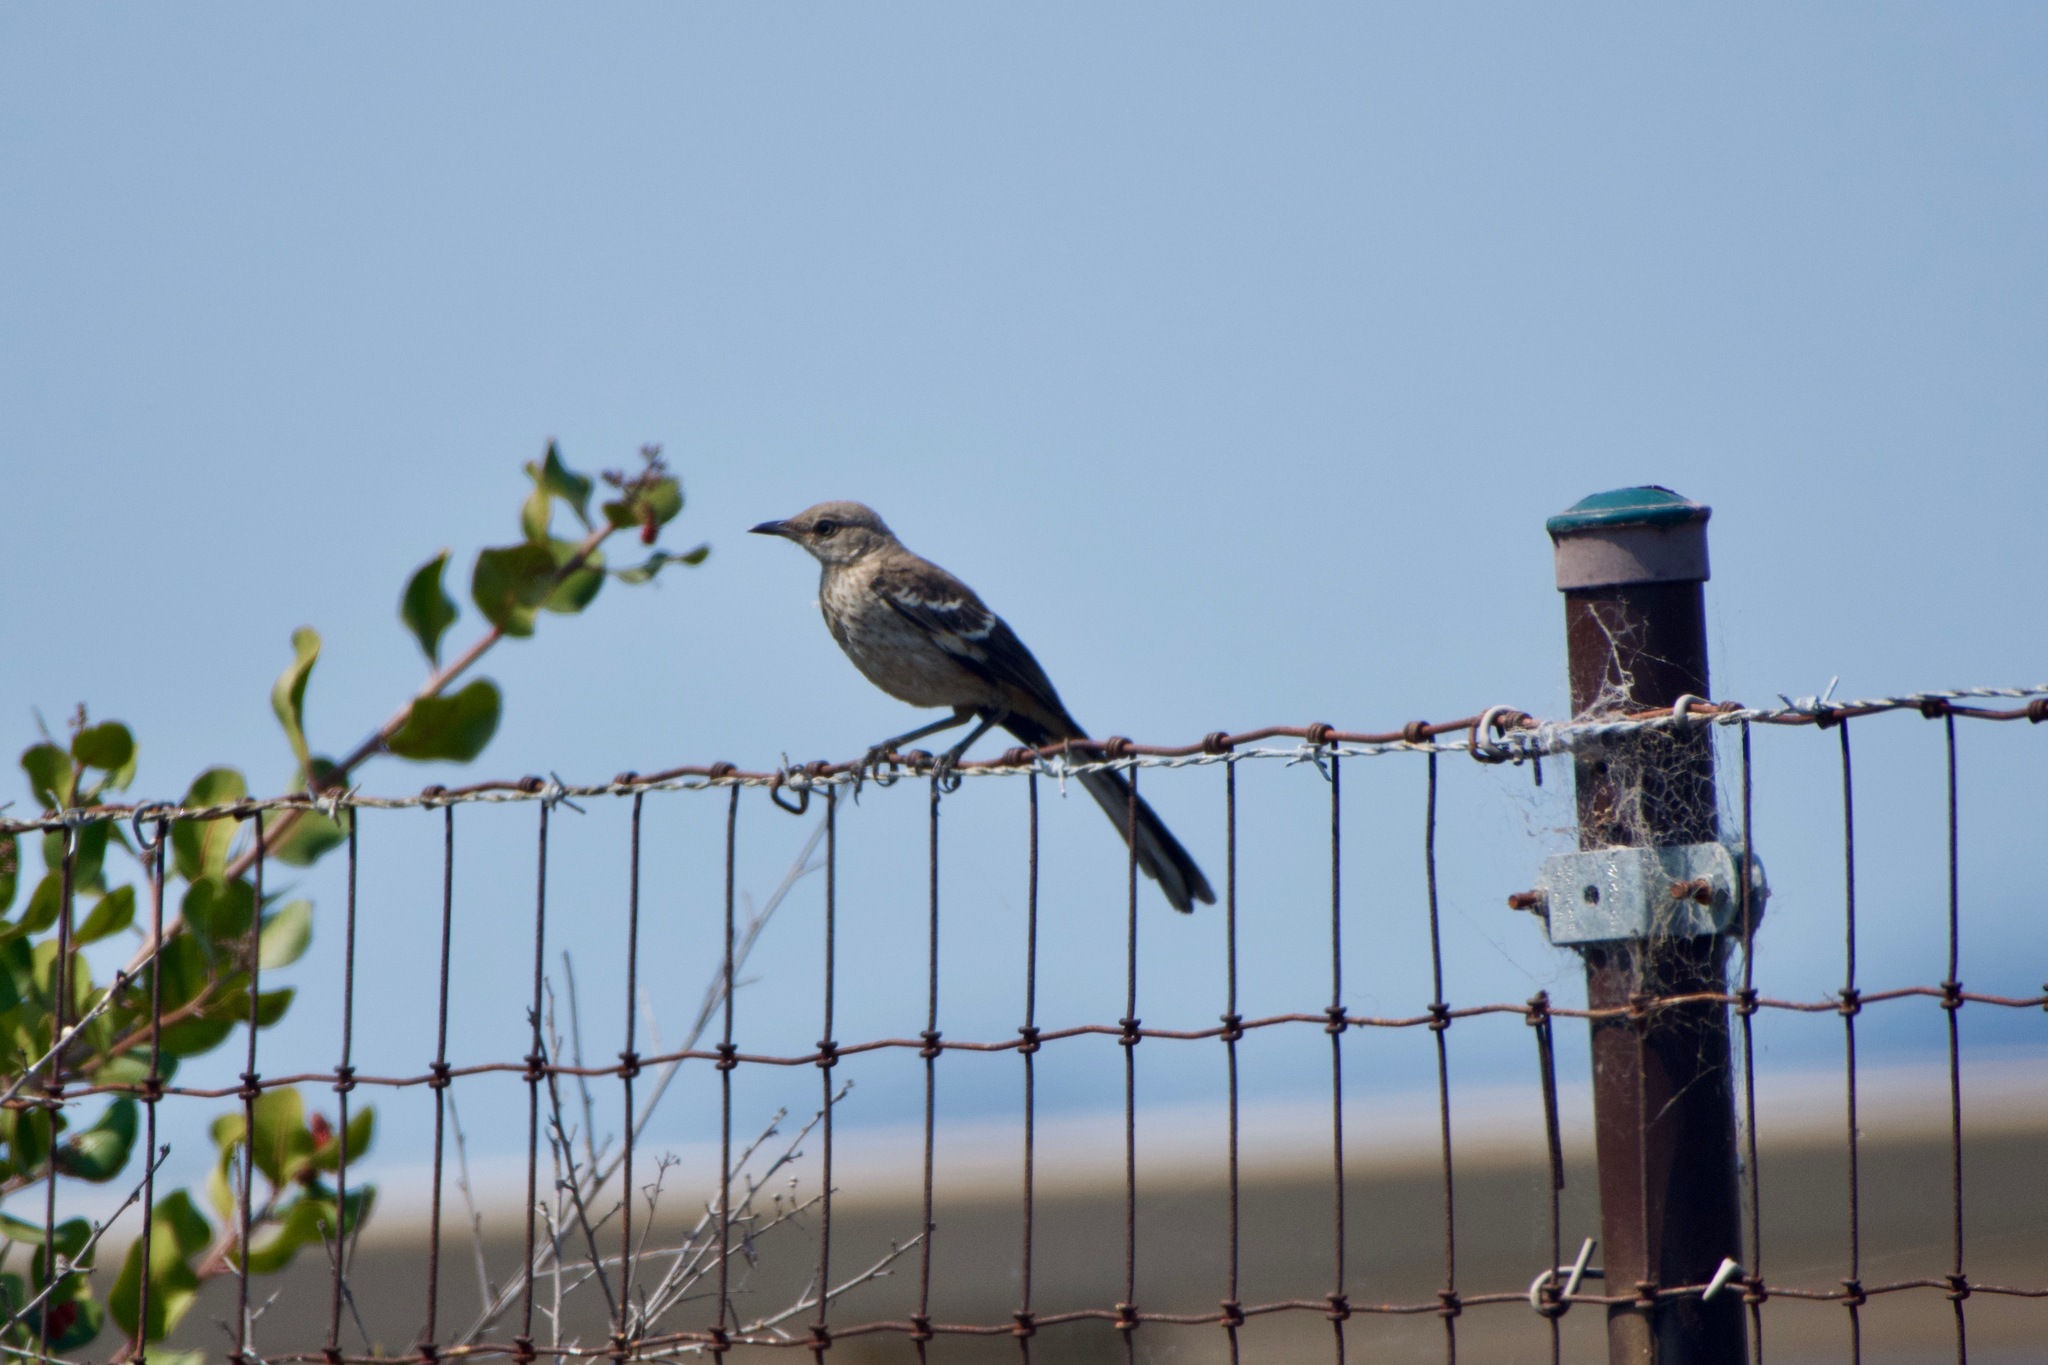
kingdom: Animalia
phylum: Chordata
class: Aves
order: Passeriformes
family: Mimidae
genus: Mimus
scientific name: Mimus polyglottos
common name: Northern mockingbird
